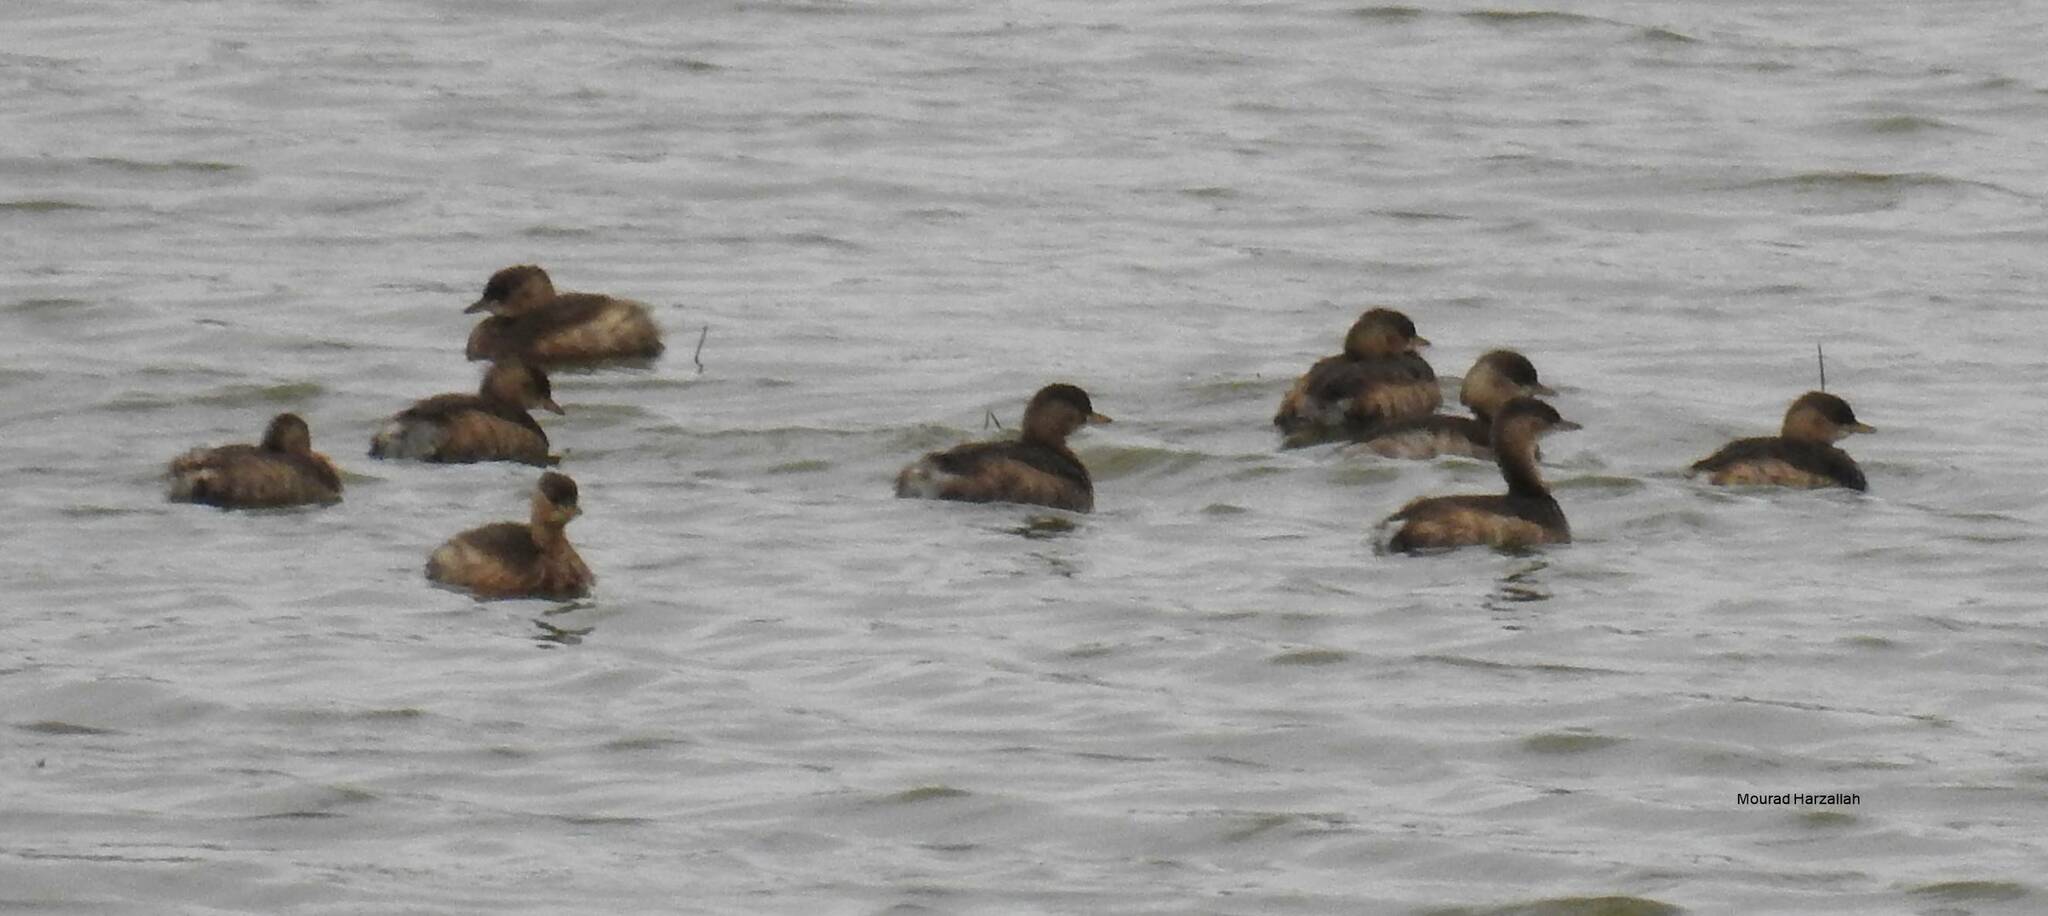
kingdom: Animalia
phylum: Chordata
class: Aves
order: Podicipediformes
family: Podicipedidae
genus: Tachybaptus
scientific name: Tachybaptus ruficollis
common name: Little grebe
